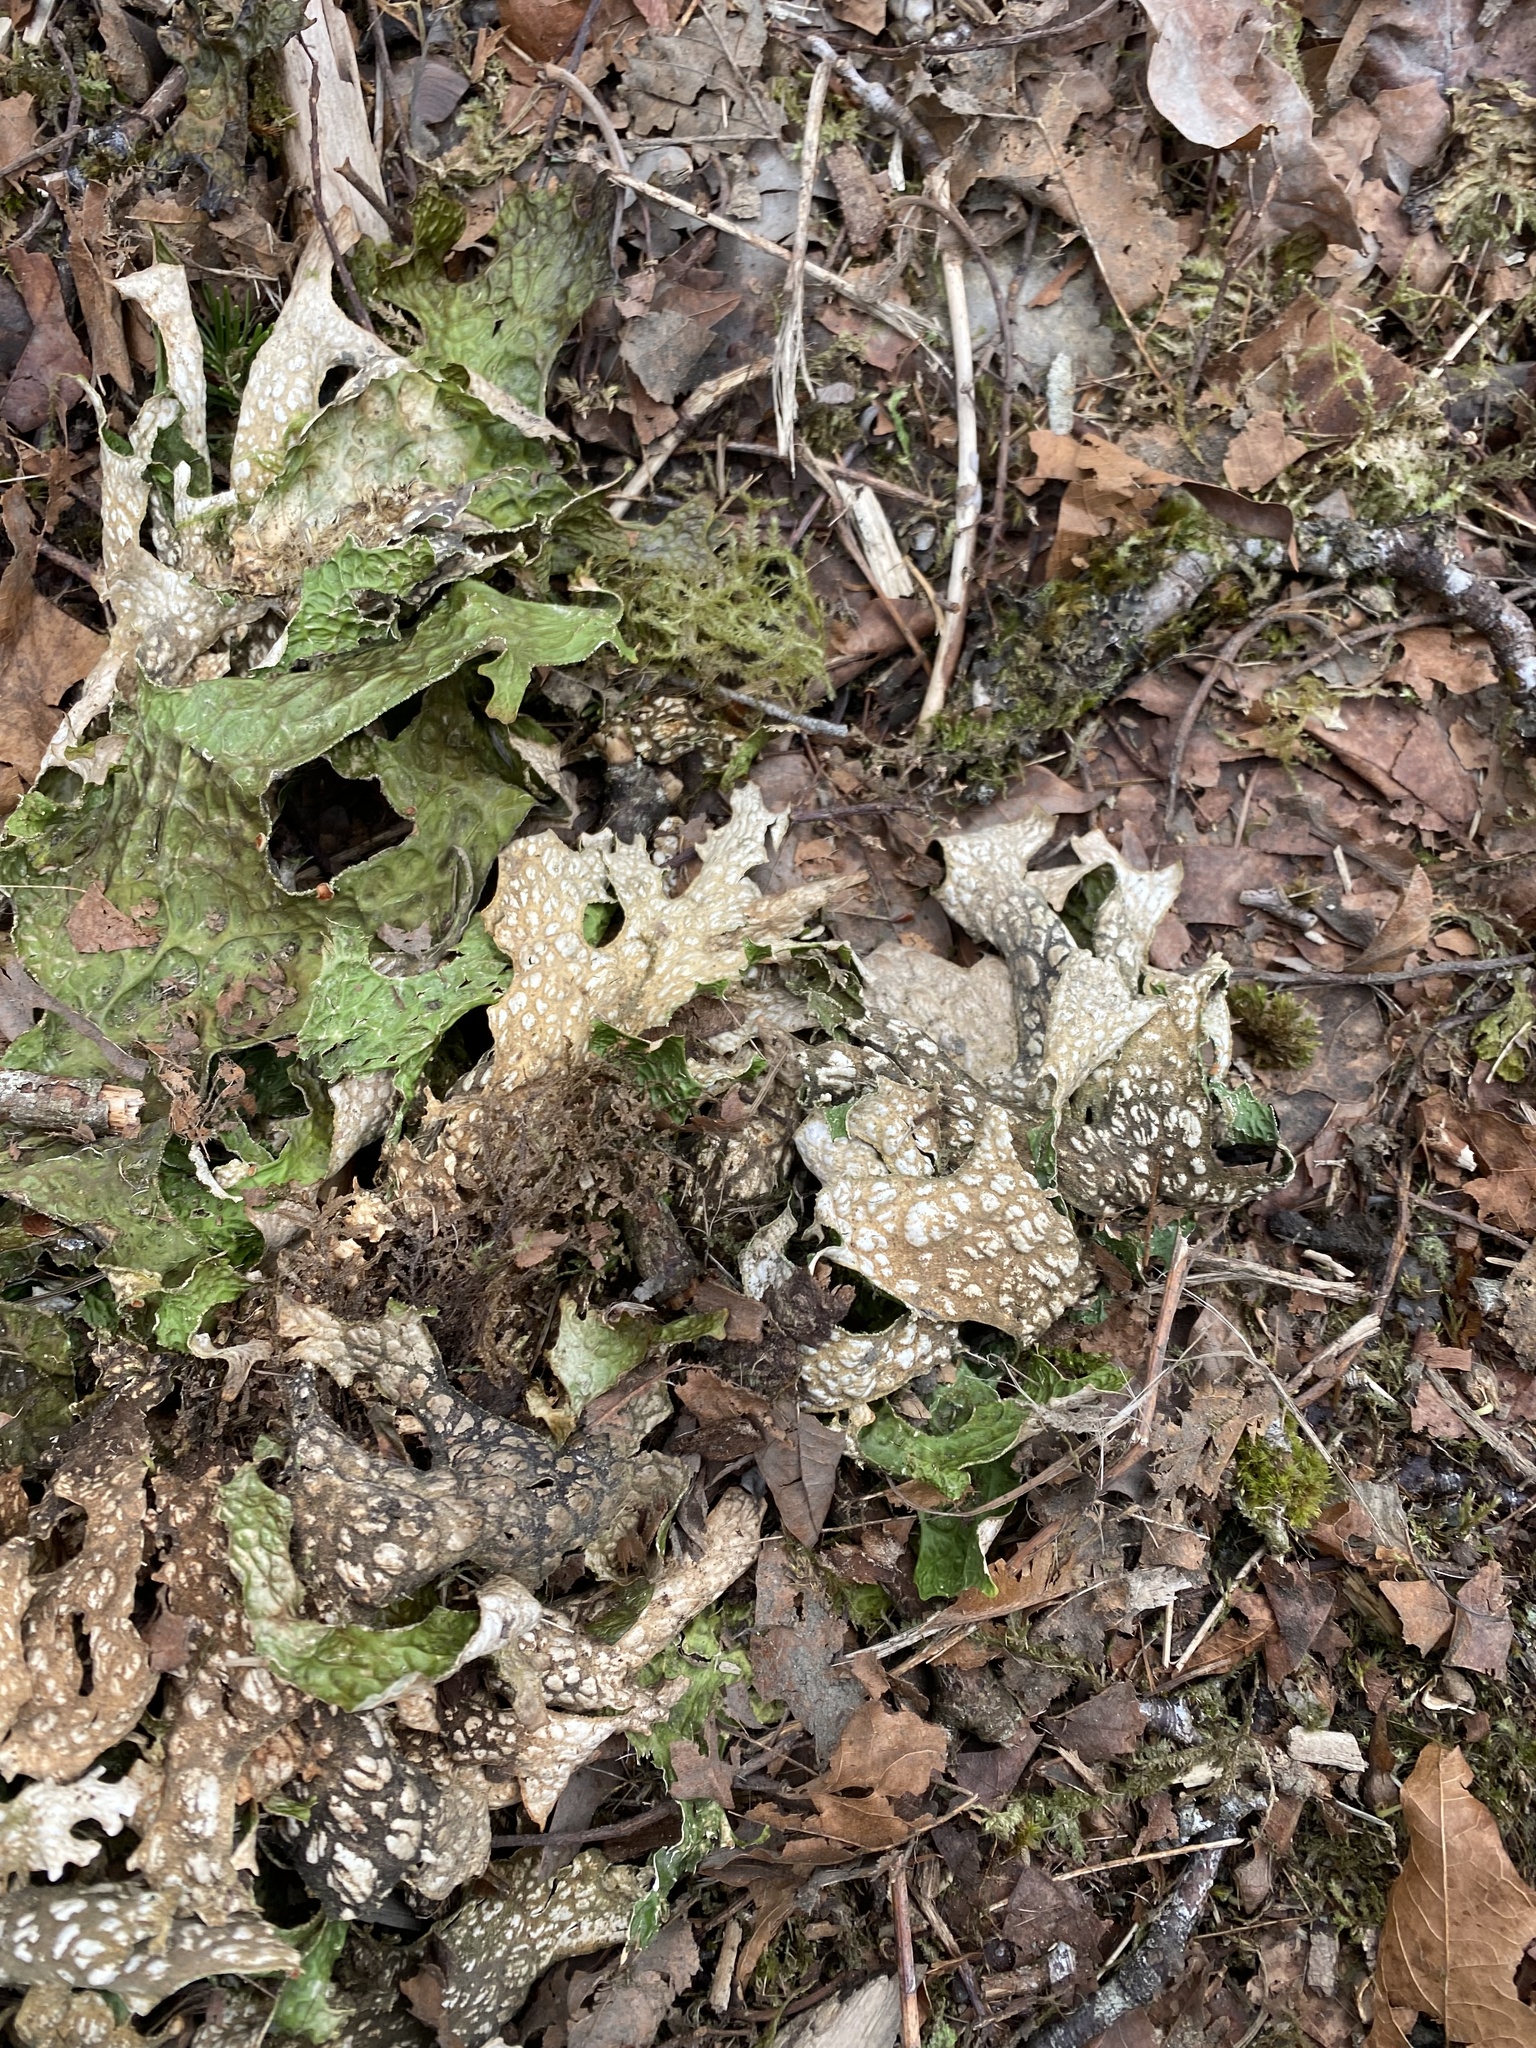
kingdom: Fungi
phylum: Ascomycota
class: Lecanoromycetes
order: Peltigerales
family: Lobariaceae
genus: Lobaria
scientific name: Lobaria pulmonaria
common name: Lungwort
